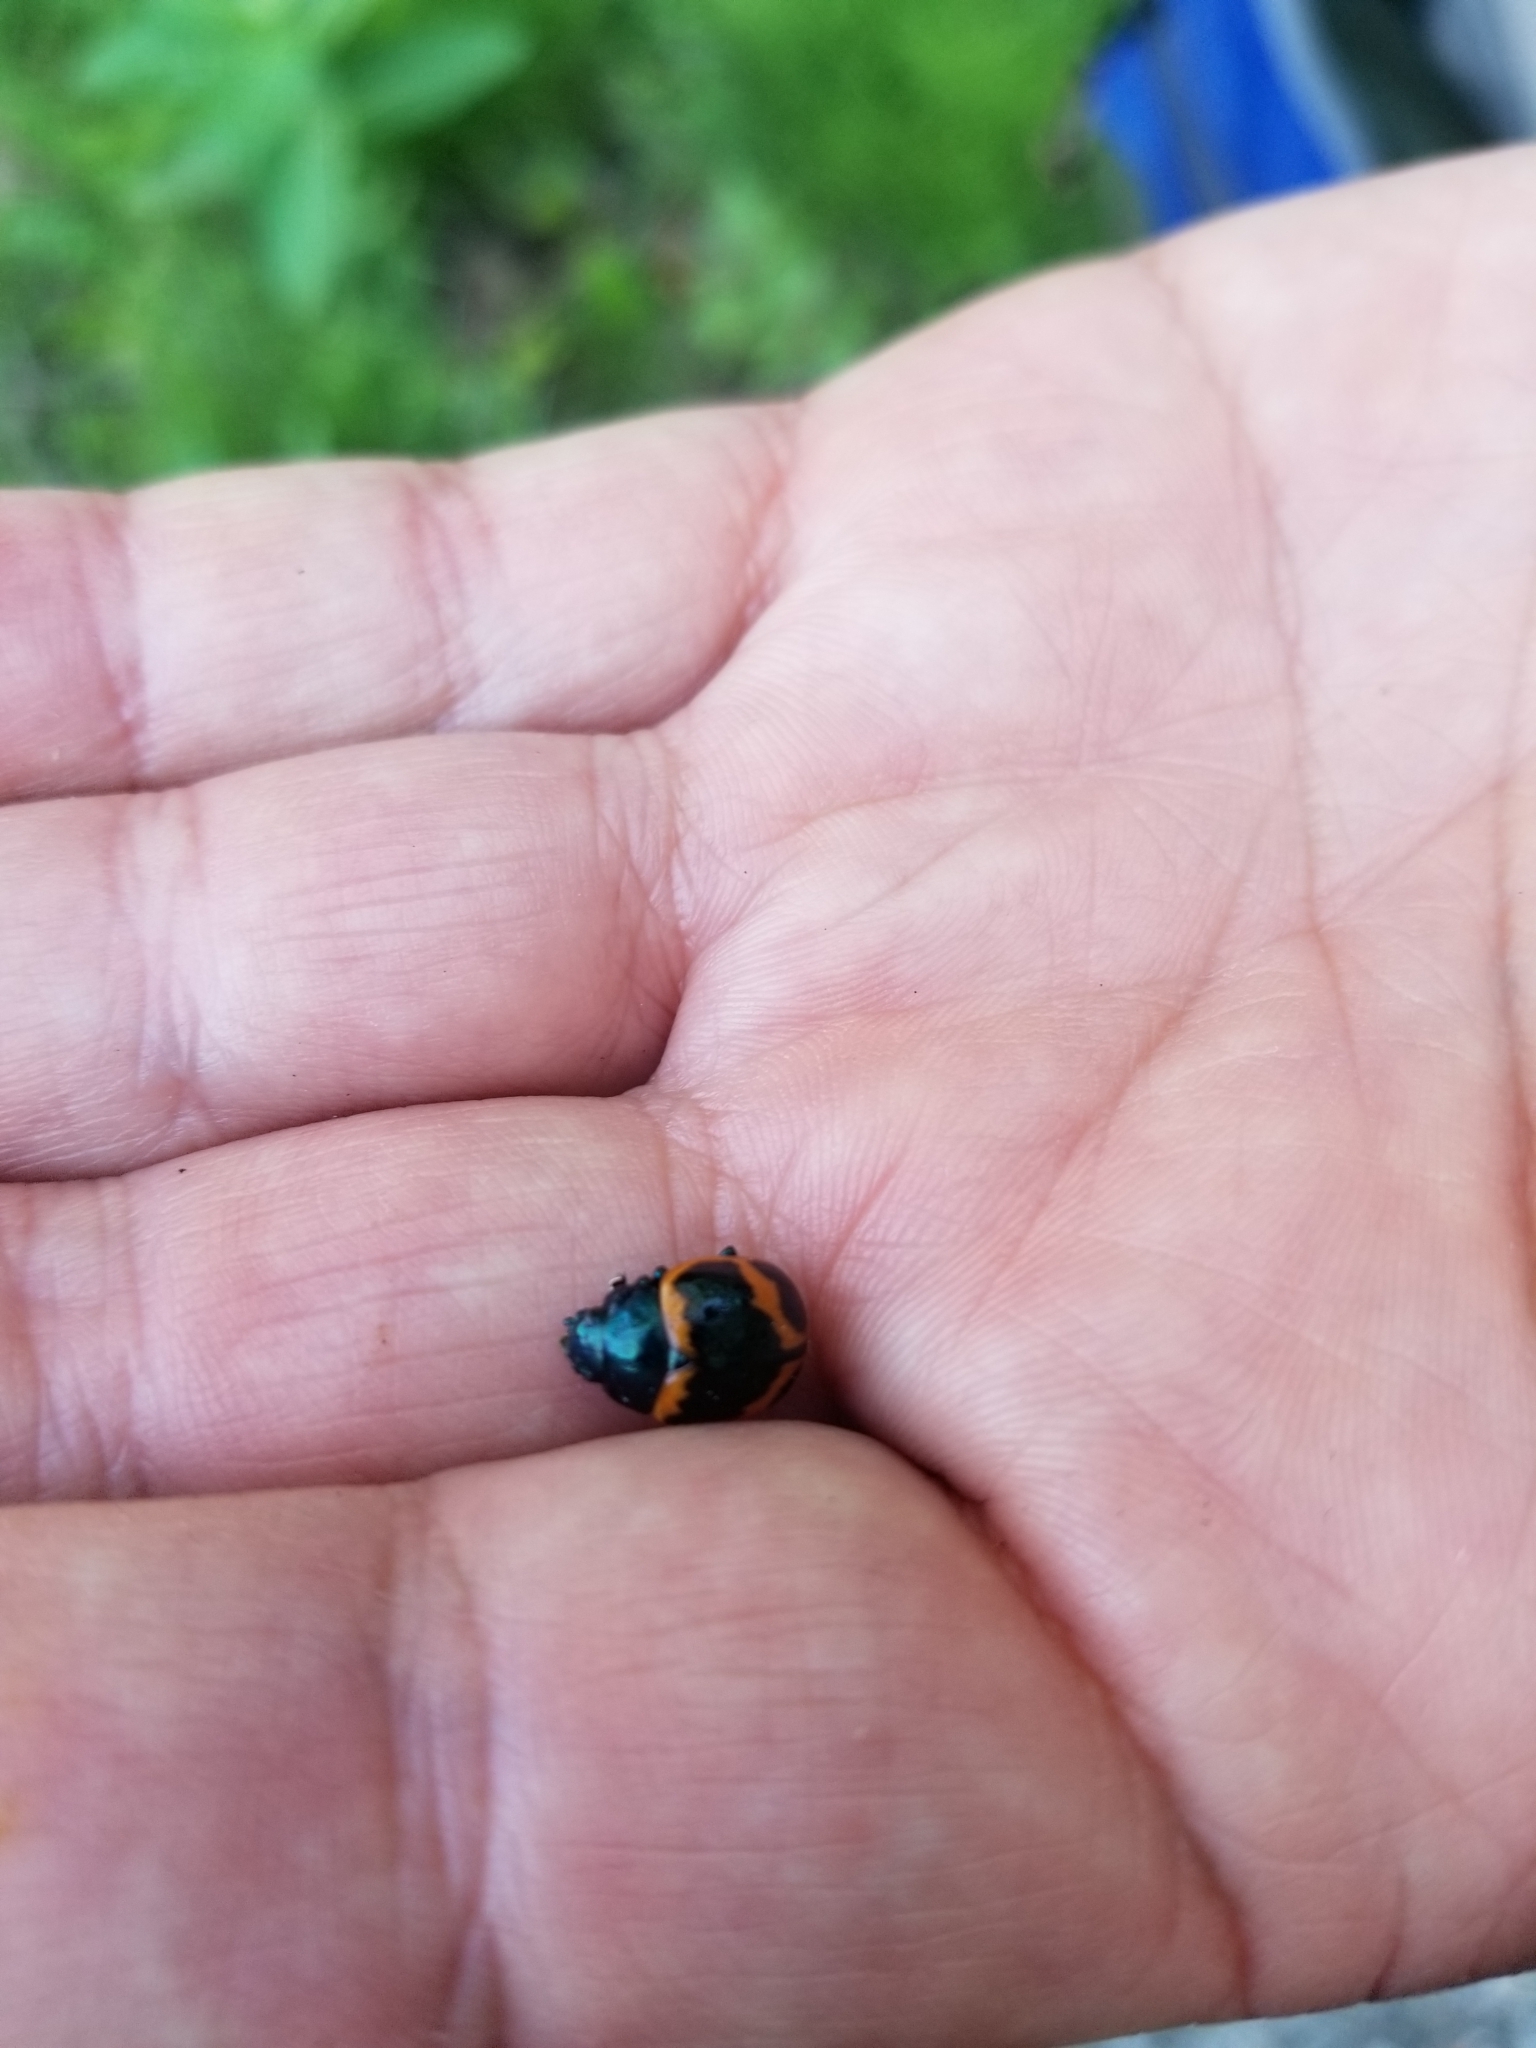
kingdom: Animalia
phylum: Arthropoda
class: Insecta
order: Coleoptera
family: Chrysomelidae
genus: Labidomera
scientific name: Labidomera clivicollis
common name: Swamp milkweed leaf beetle
